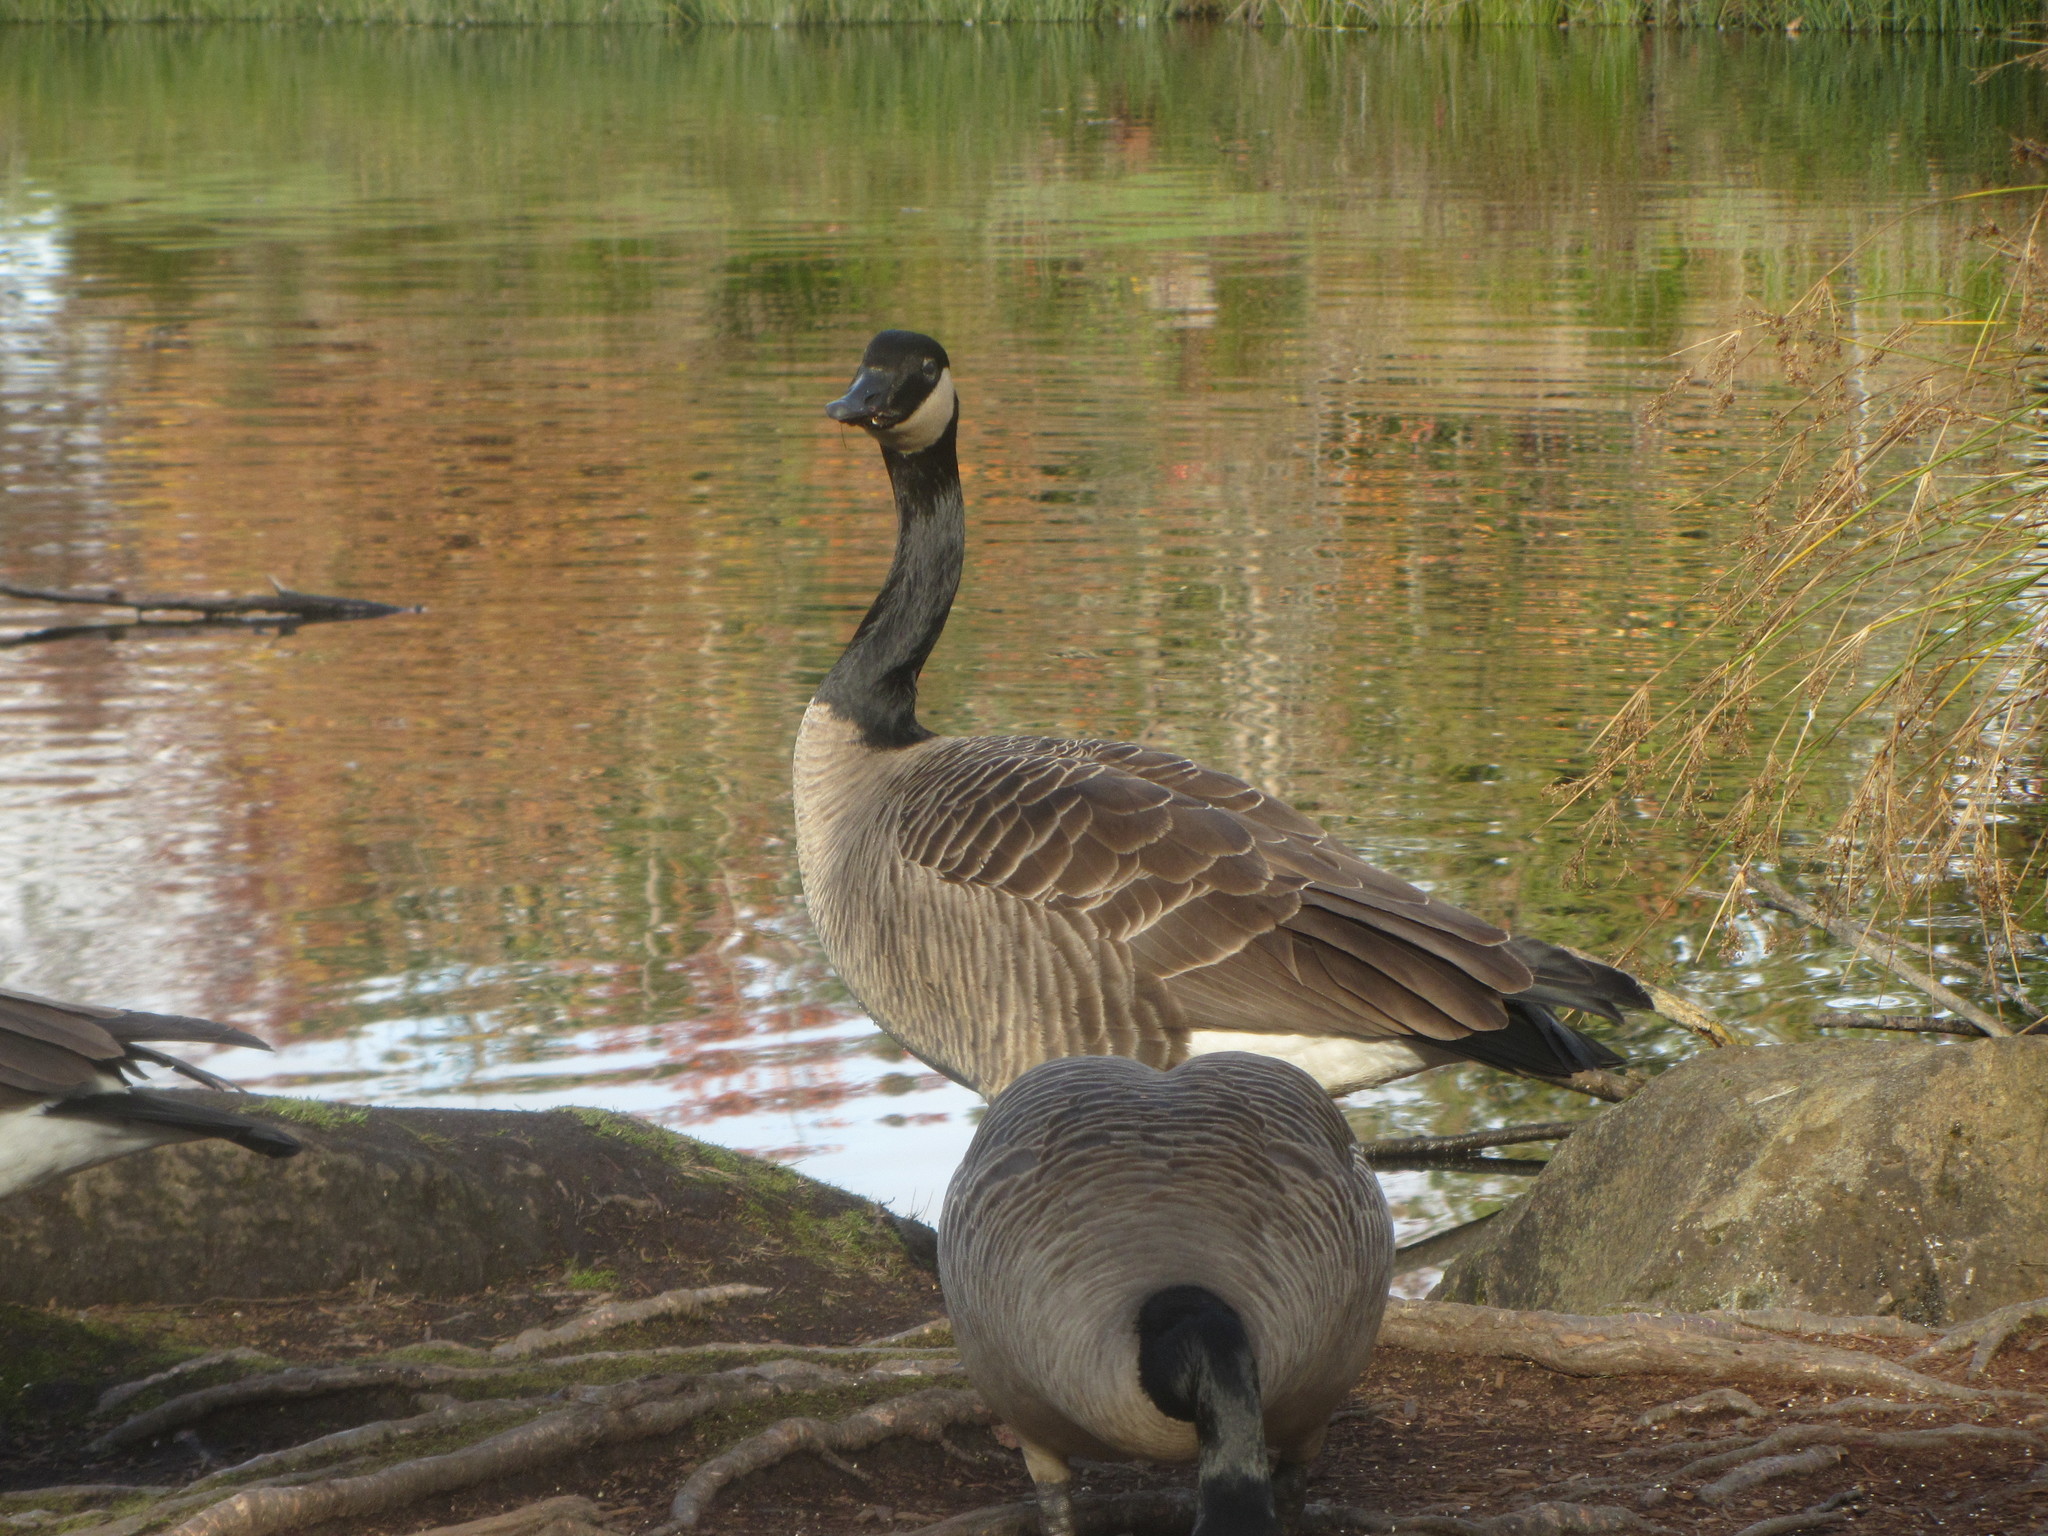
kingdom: Animalia
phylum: Chordata
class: Aves
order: Anseriformes
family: Anatidae
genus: Branta
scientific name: Branta canadensis
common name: Canada goose
